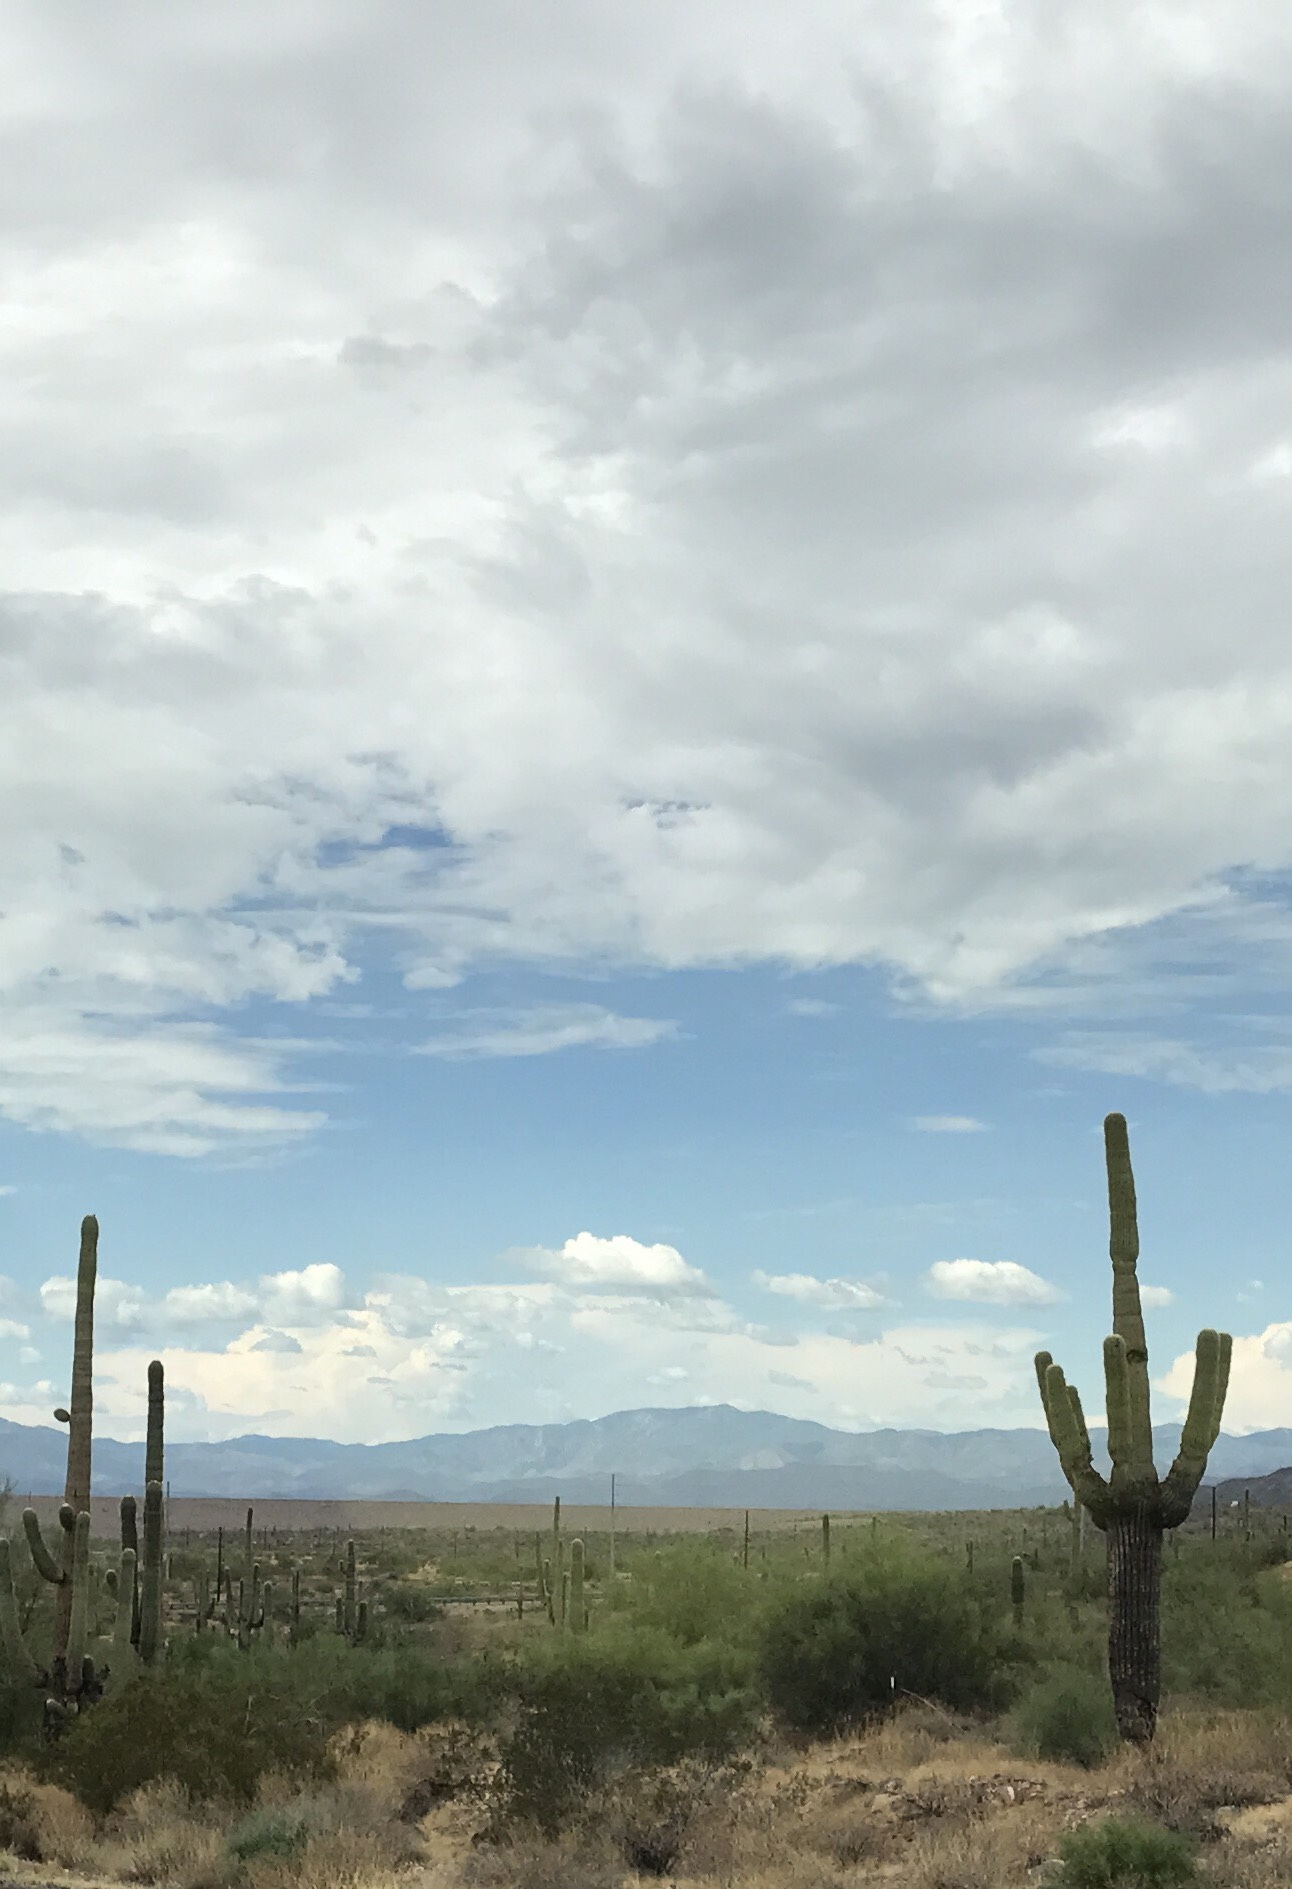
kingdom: Plantae
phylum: Tracheophyta
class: Magnoliopsida
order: Caryophyllales
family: Cactaceae
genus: Carnegiea
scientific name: Carnegiea gigantea
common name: Saguaro
